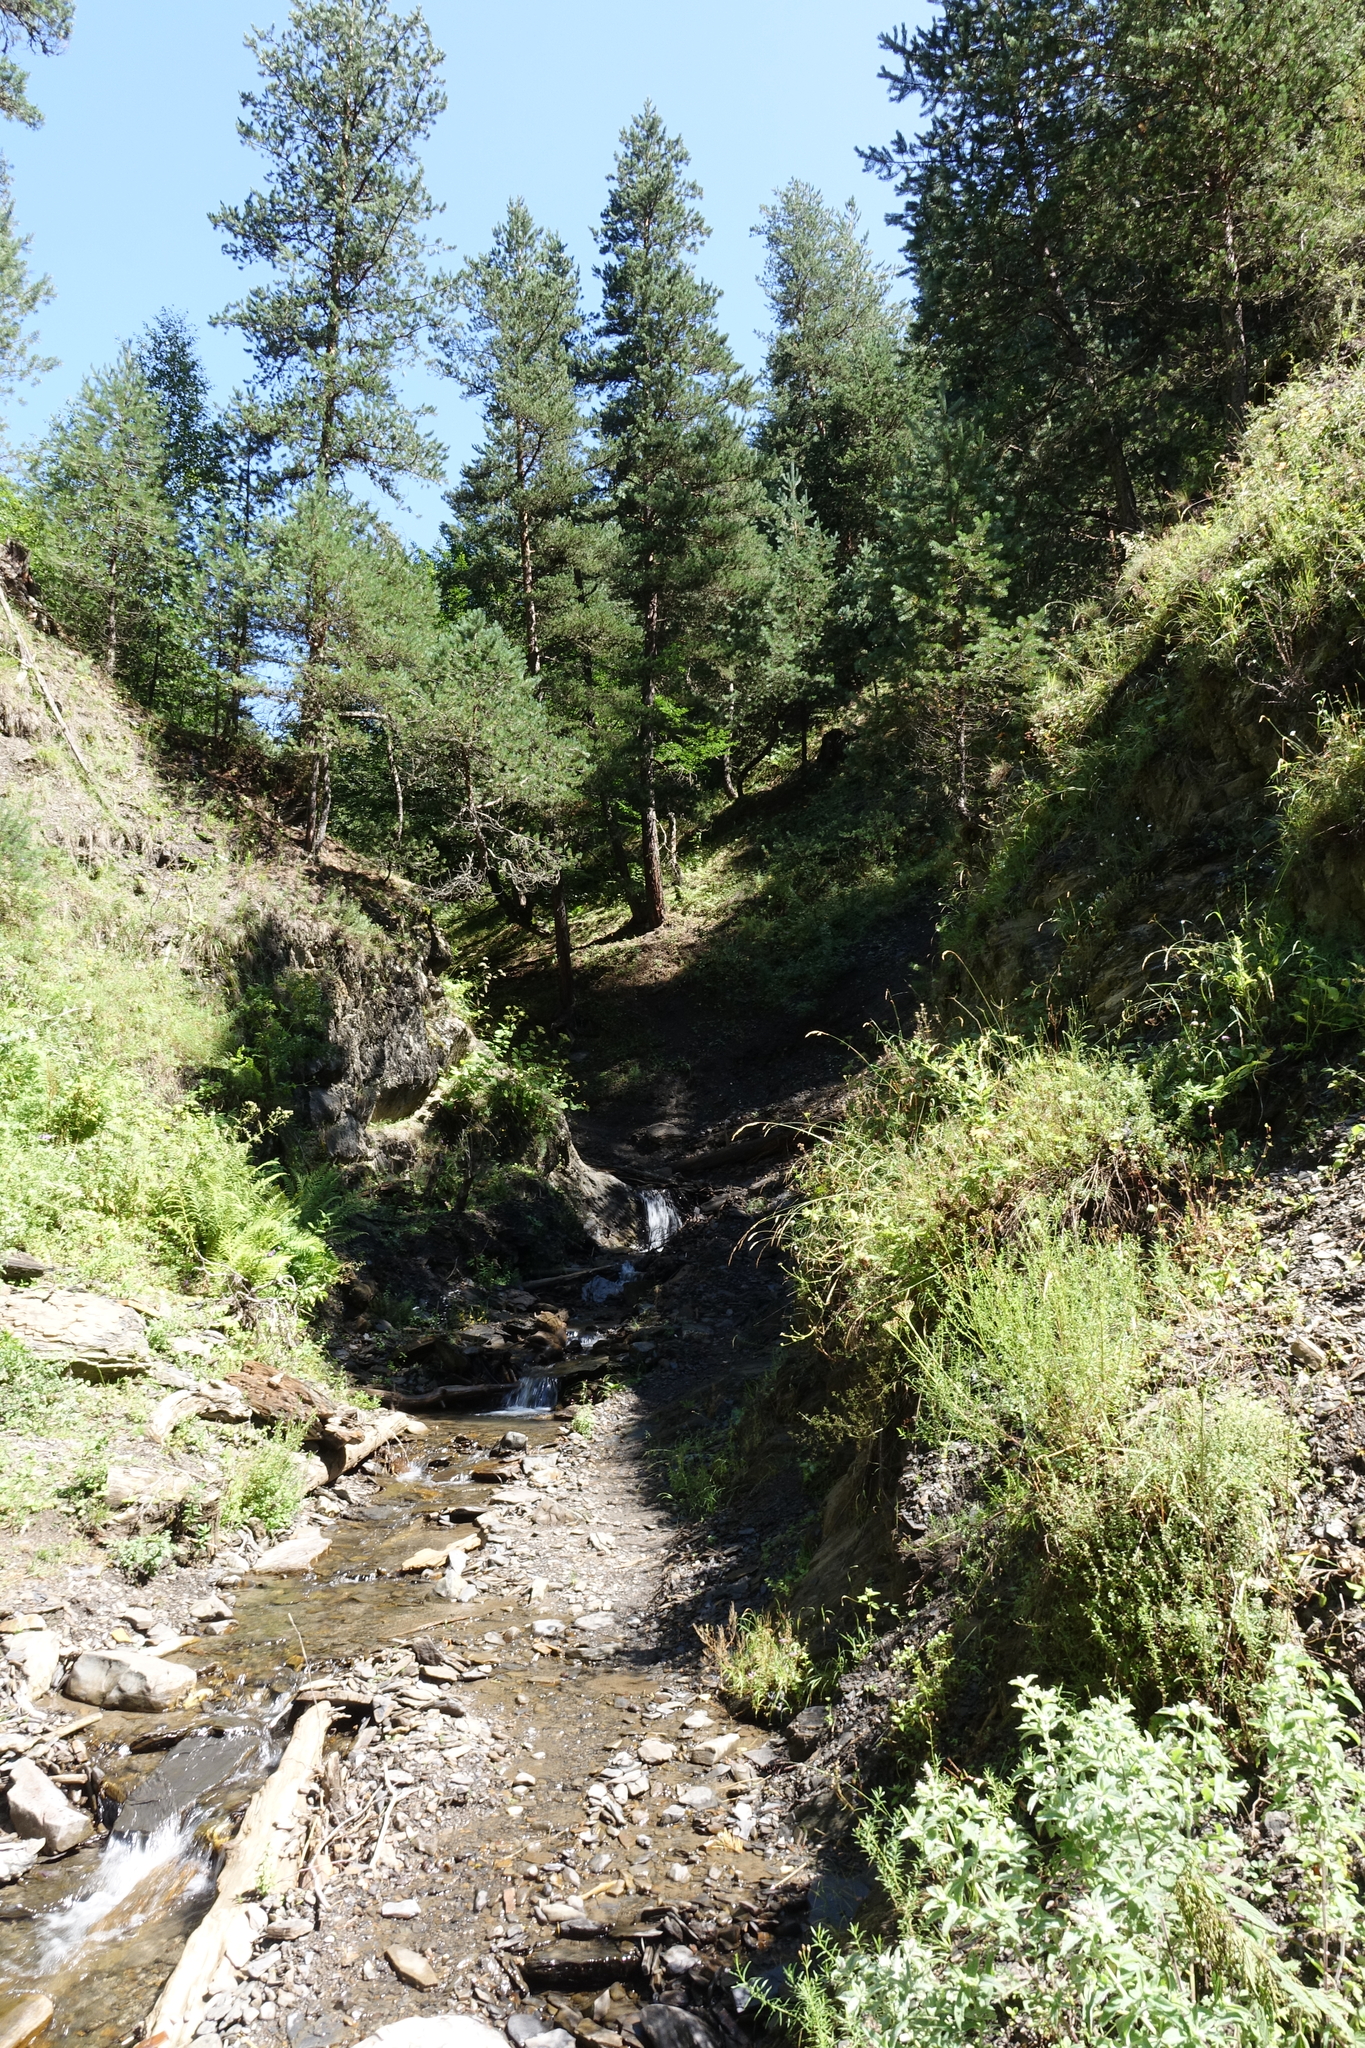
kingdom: Plantae
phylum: Tracheophyta
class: Pinopsida
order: Pinales
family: Pinaceae
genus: Pinus
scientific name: Pinus sylvestris
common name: Scots pine
